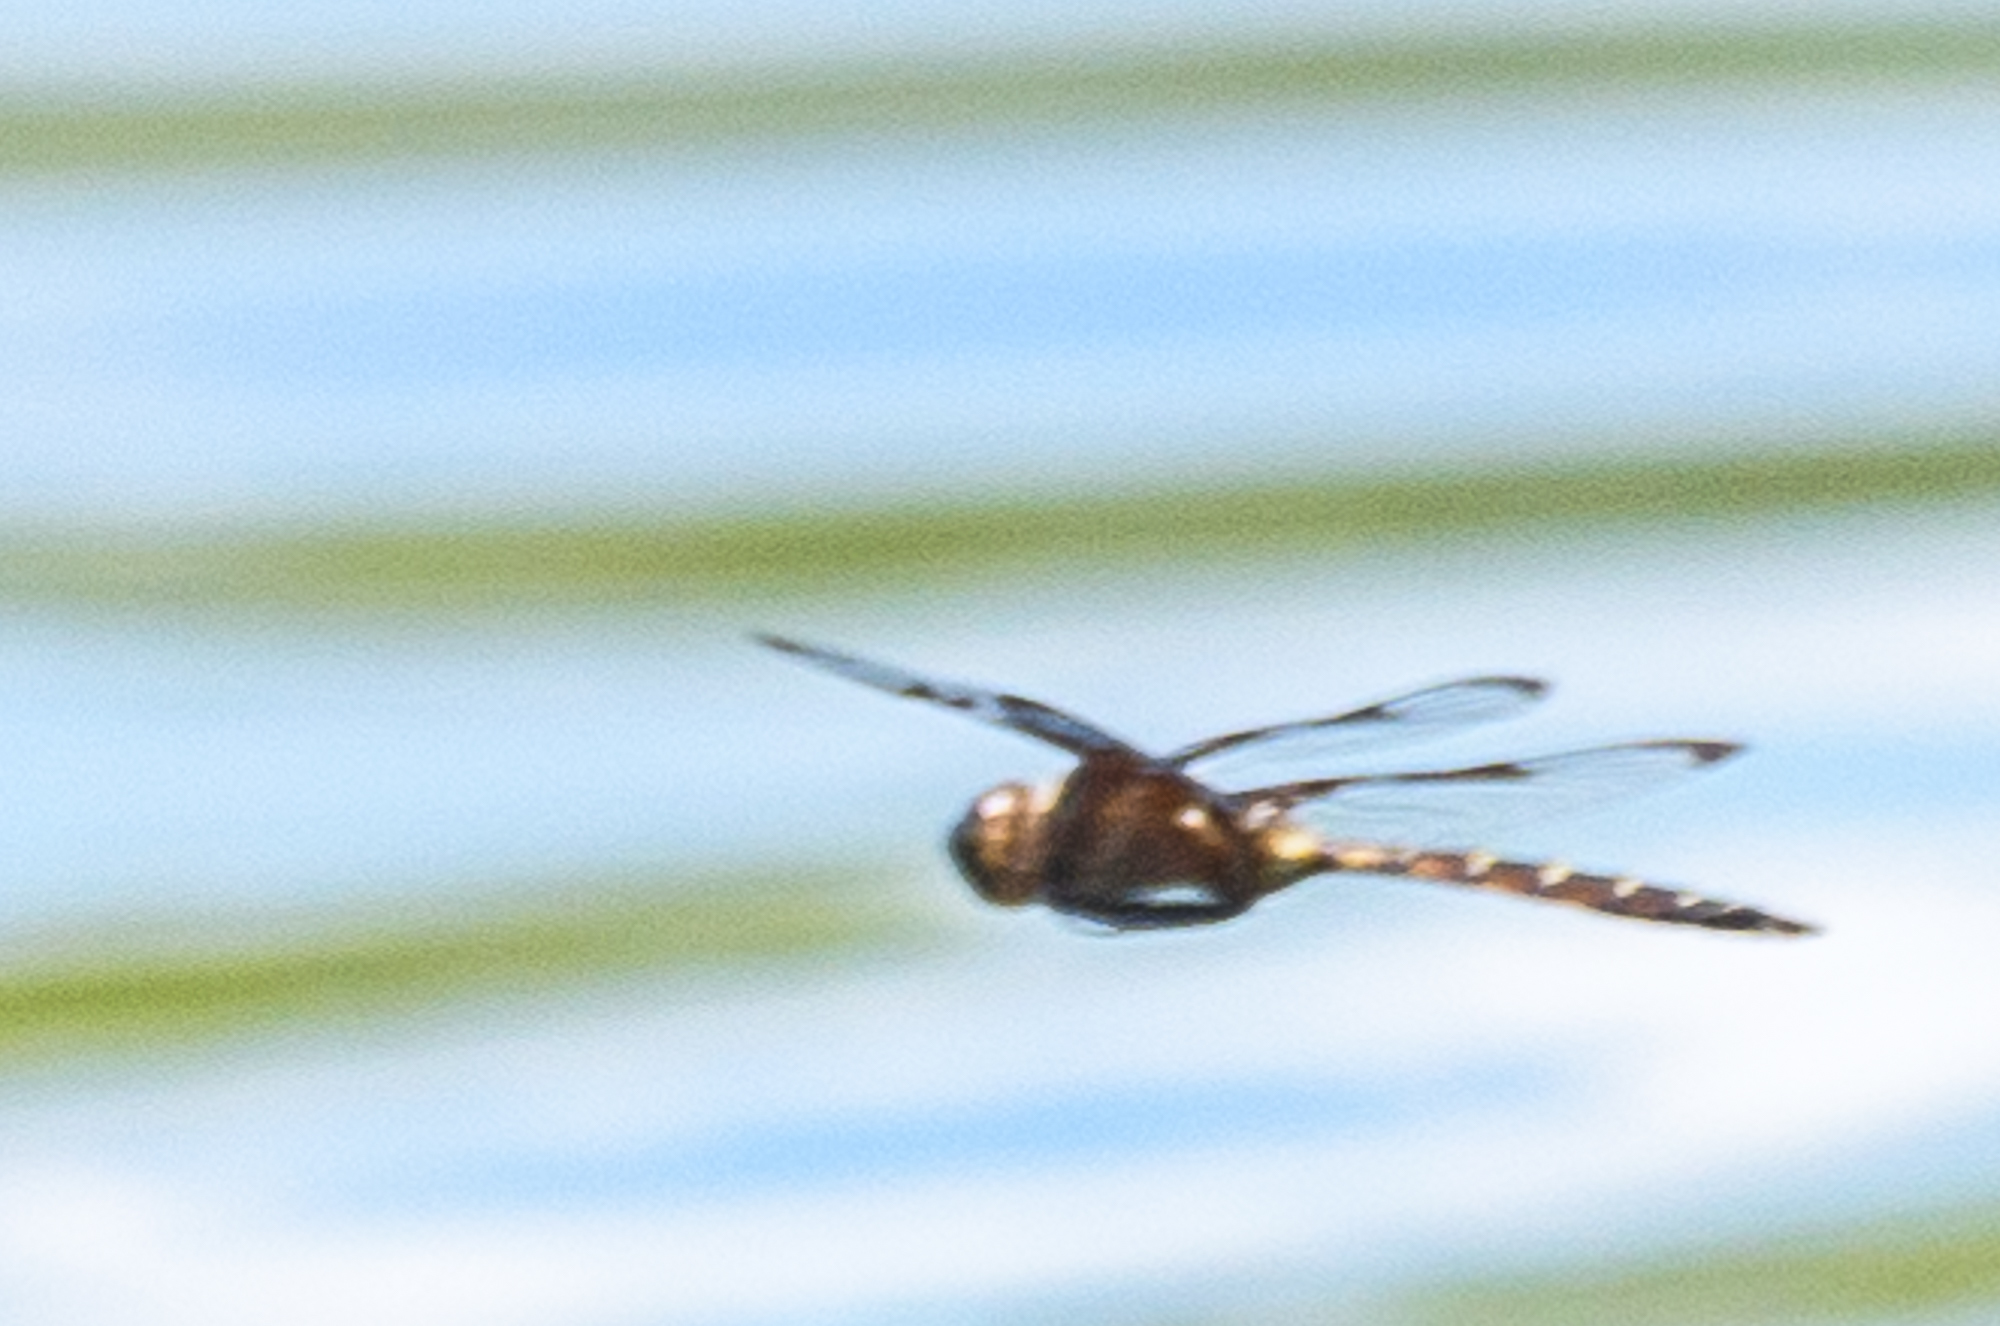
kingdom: Animalia
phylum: Arthropoda
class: Insecta
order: Odonata
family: Corduliidae
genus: Epitheca
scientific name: Epitheca princeps
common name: Prince baskettail
